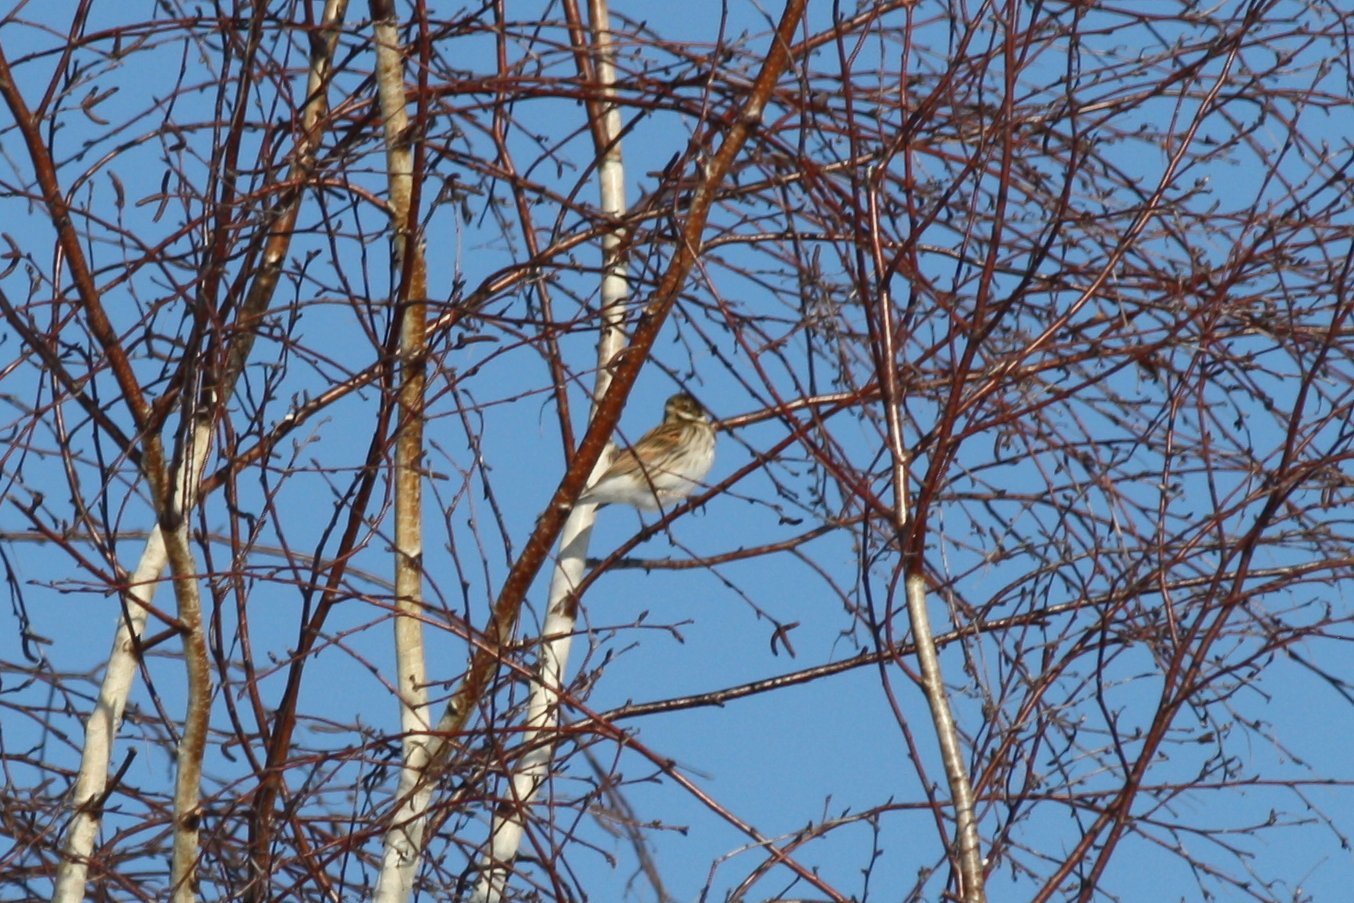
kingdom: Animalia
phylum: Chordata
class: Aves
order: Passeriformes
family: Emberizidae
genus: Emberiza
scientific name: Emberiza schoeniclus
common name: Reed bunting
